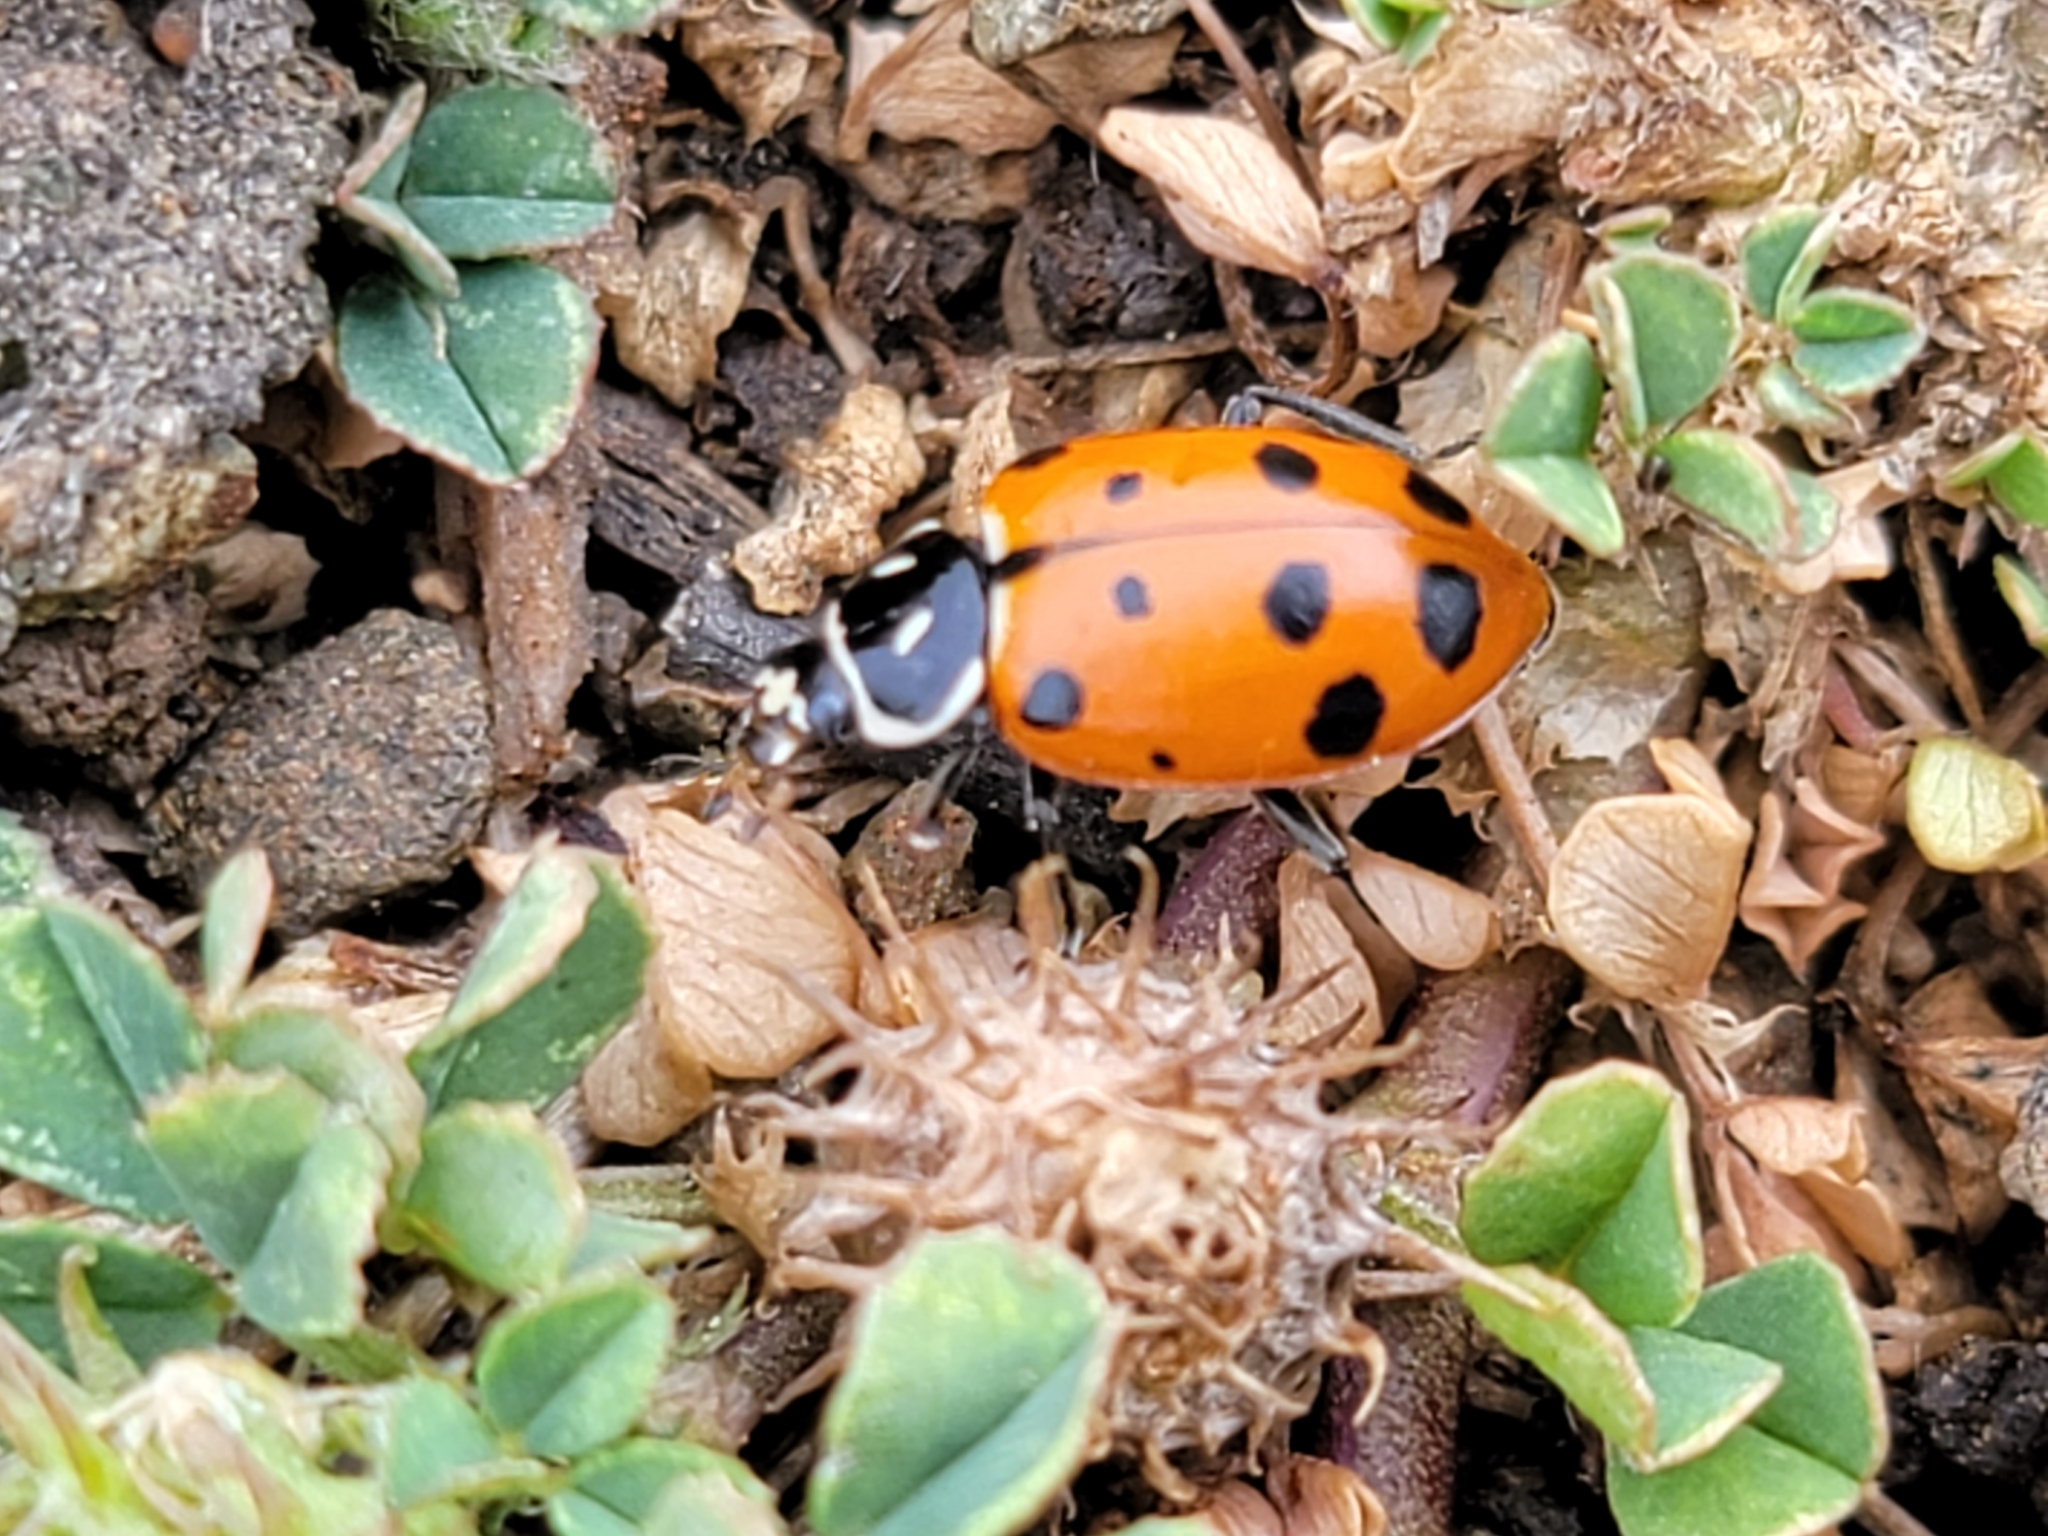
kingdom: Animalia
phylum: Arthropoda
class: Insecta
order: Coleoptera
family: Coccinellidae
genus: Hippodamia
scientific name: Hippodamia convergens
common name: Convergent lady beetle
